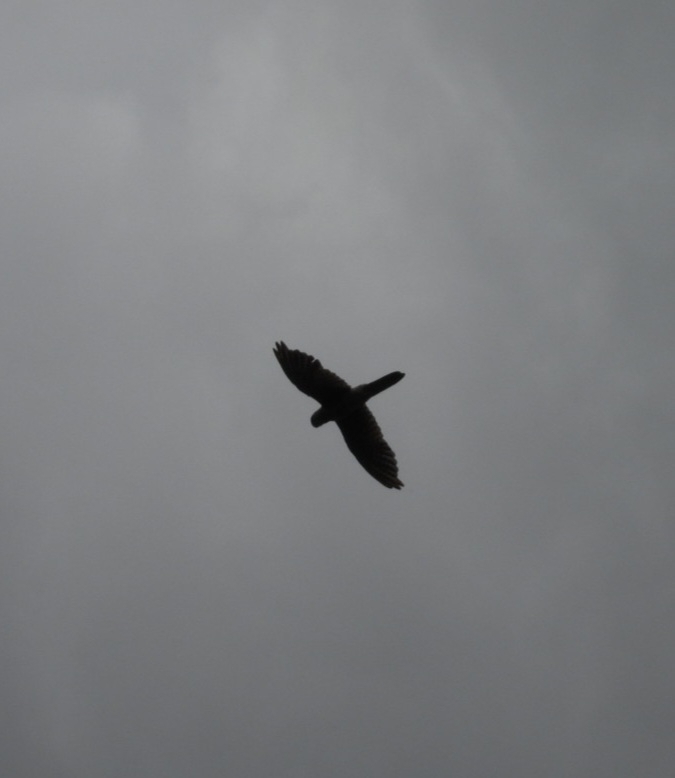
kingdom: Animalia
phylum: Chordata
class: Aves
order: Falconiformes
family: Falconidae
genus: Falco
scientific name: Falco tinnunculus
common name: Common kestrel
